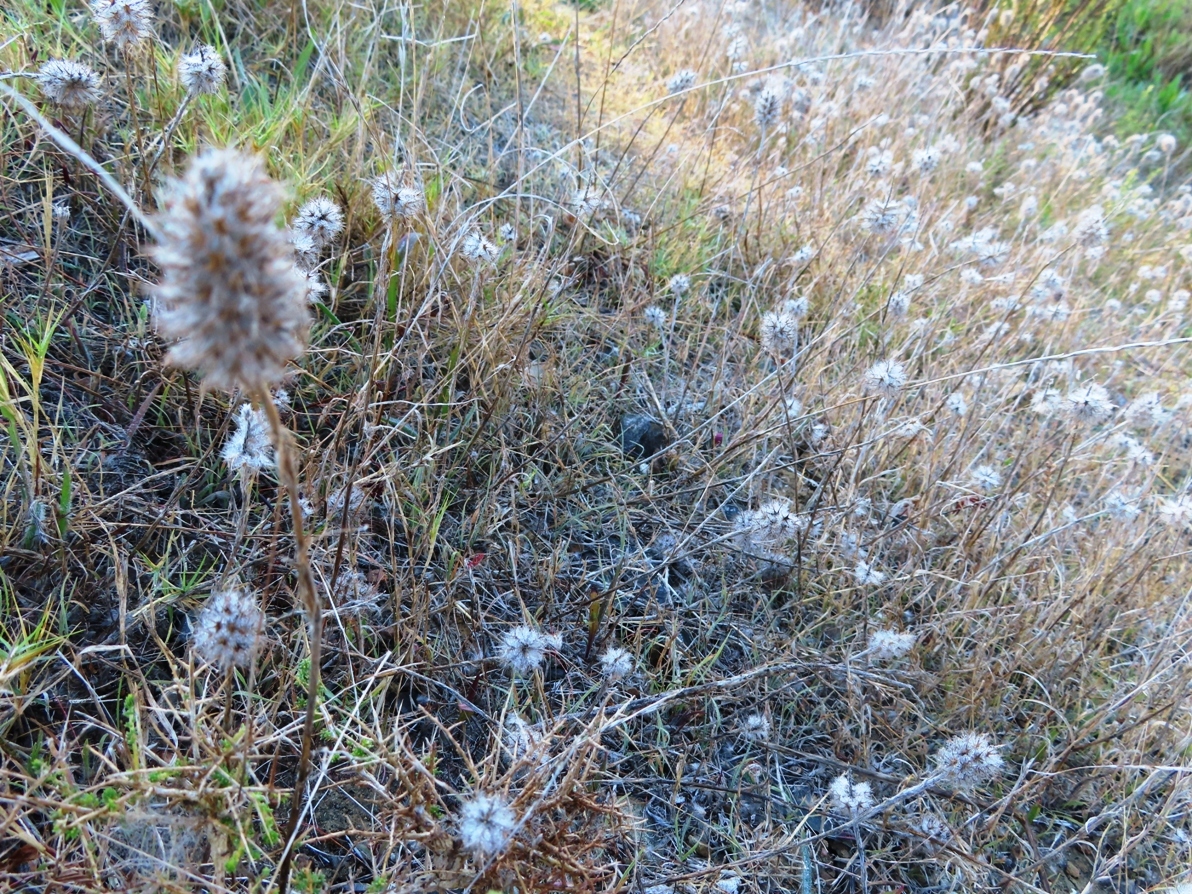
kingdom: Plantae
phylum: Tracheophyta
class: Magnoliopsida
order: Fabales
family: Fabaceae
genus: Trifolium
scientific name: Trifolium angustifolium
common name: Narrow clover
